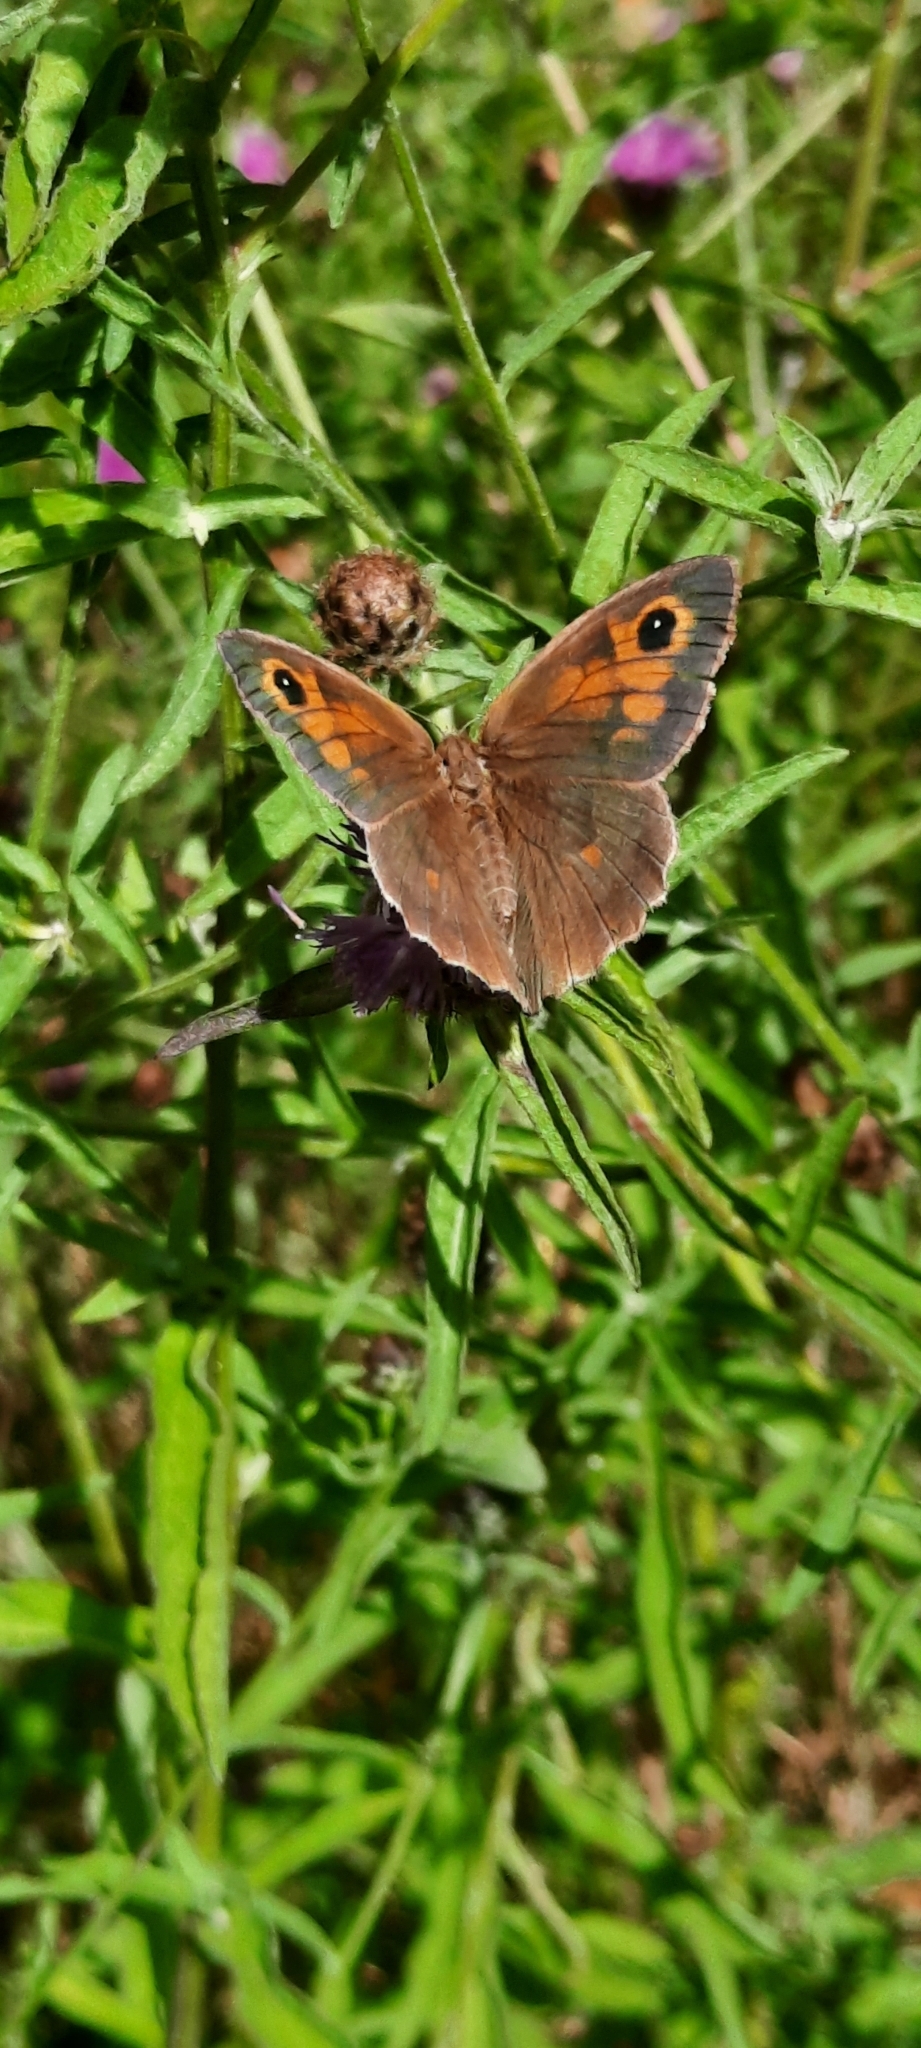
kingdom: Animalia
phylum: Arthropoda
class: Insecta
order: Lepidoptera
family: Nymphalidae
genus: Maniola
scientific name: Maniola jurtina
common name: Meadow brown
